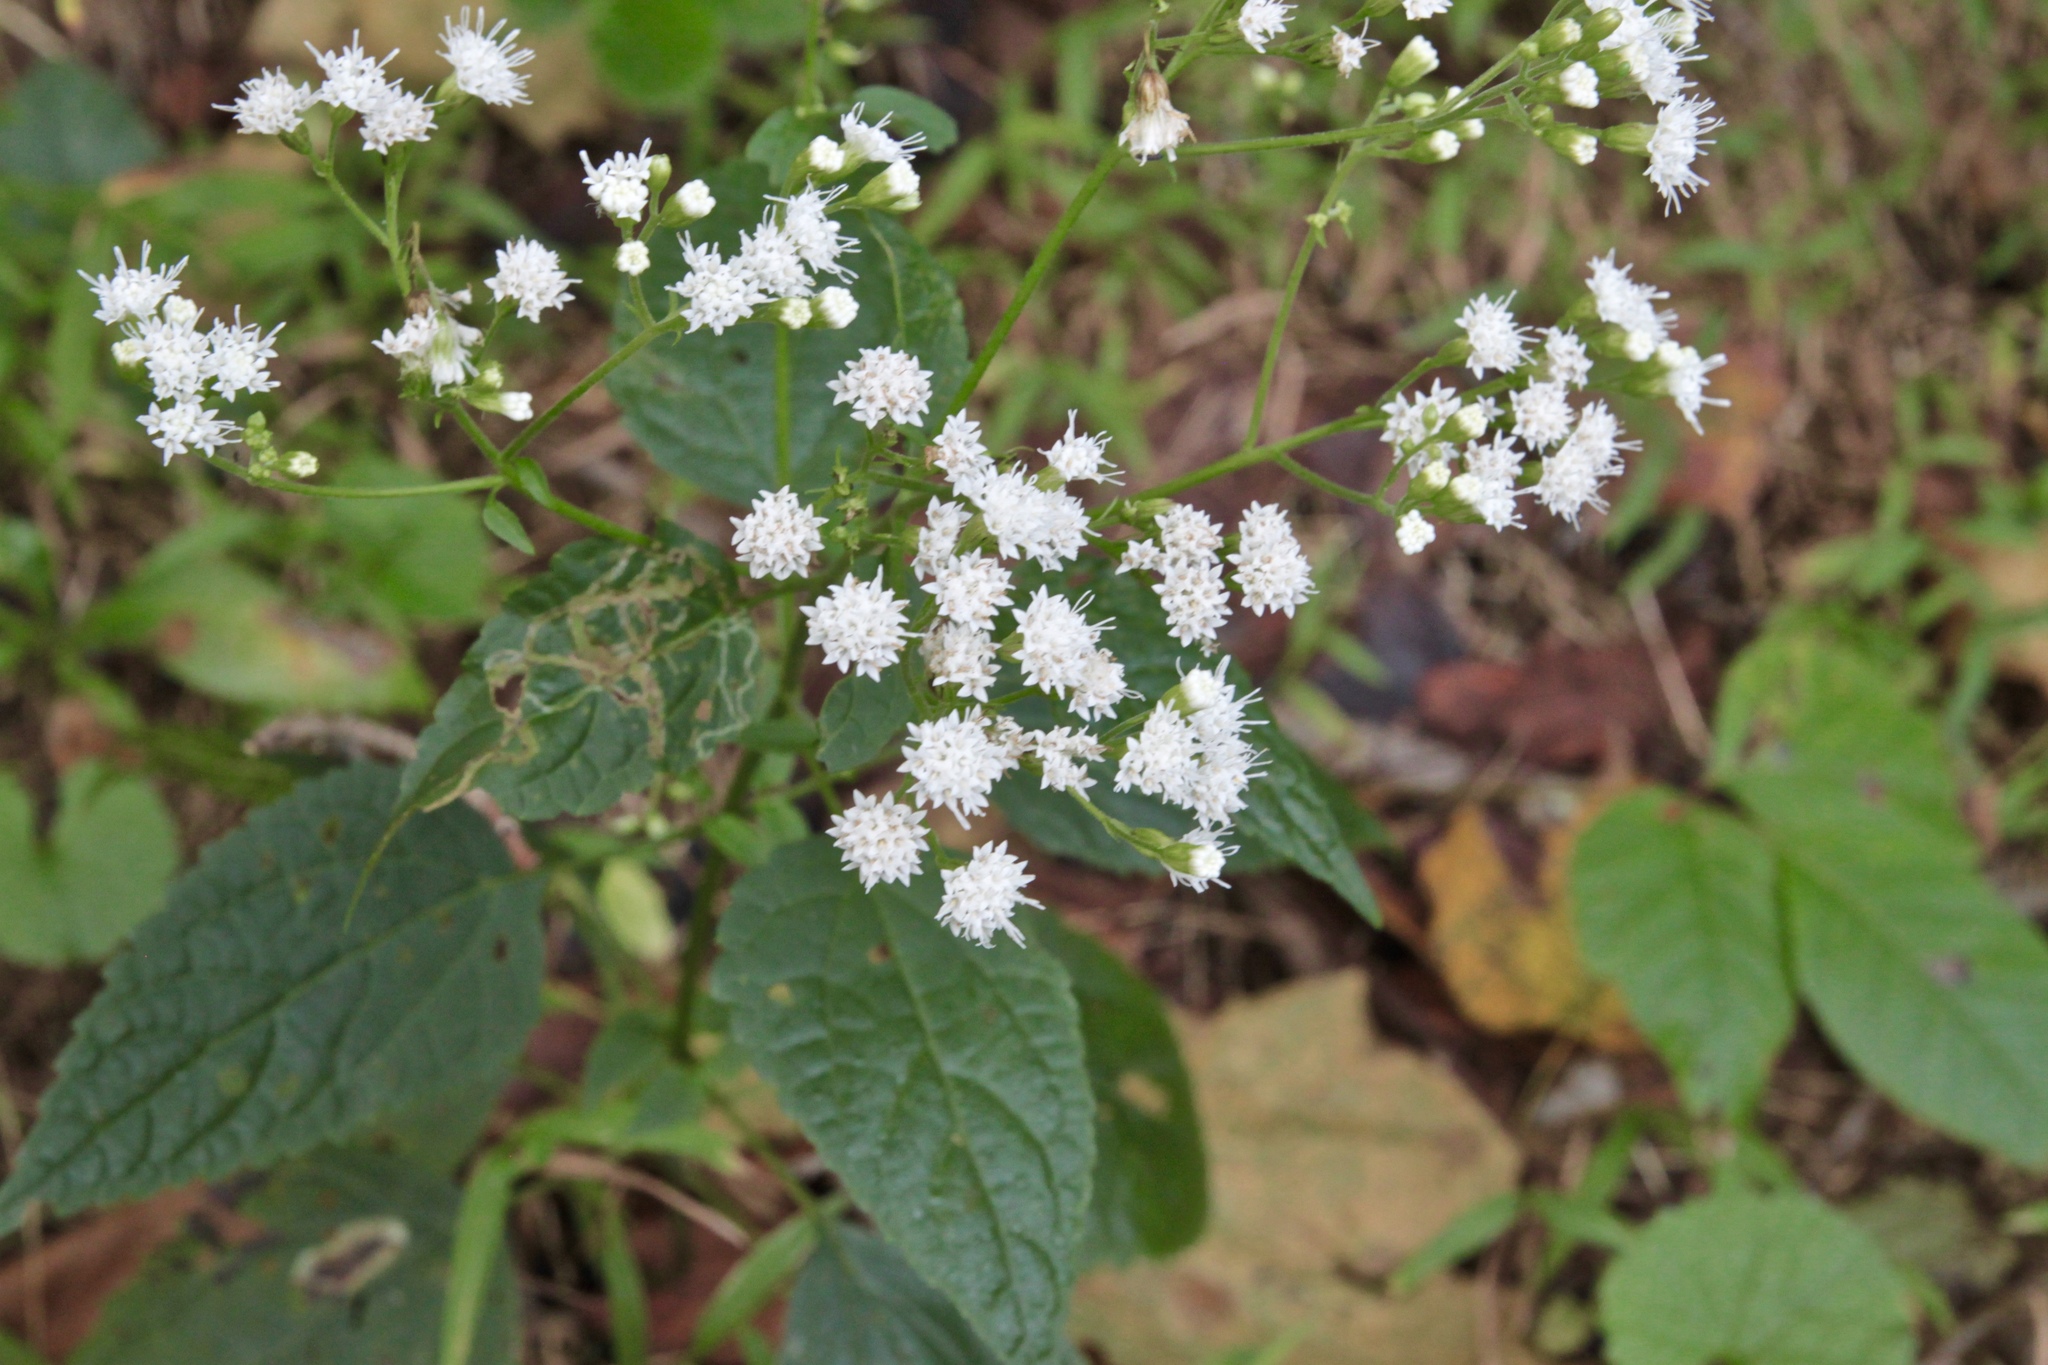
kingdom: Plantae
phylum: Tracheophyta
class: Magnoliopsida
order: Asterales
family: Asteraceae
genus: Ageratina
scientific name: Ageratina altissima
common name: White snakeroot
